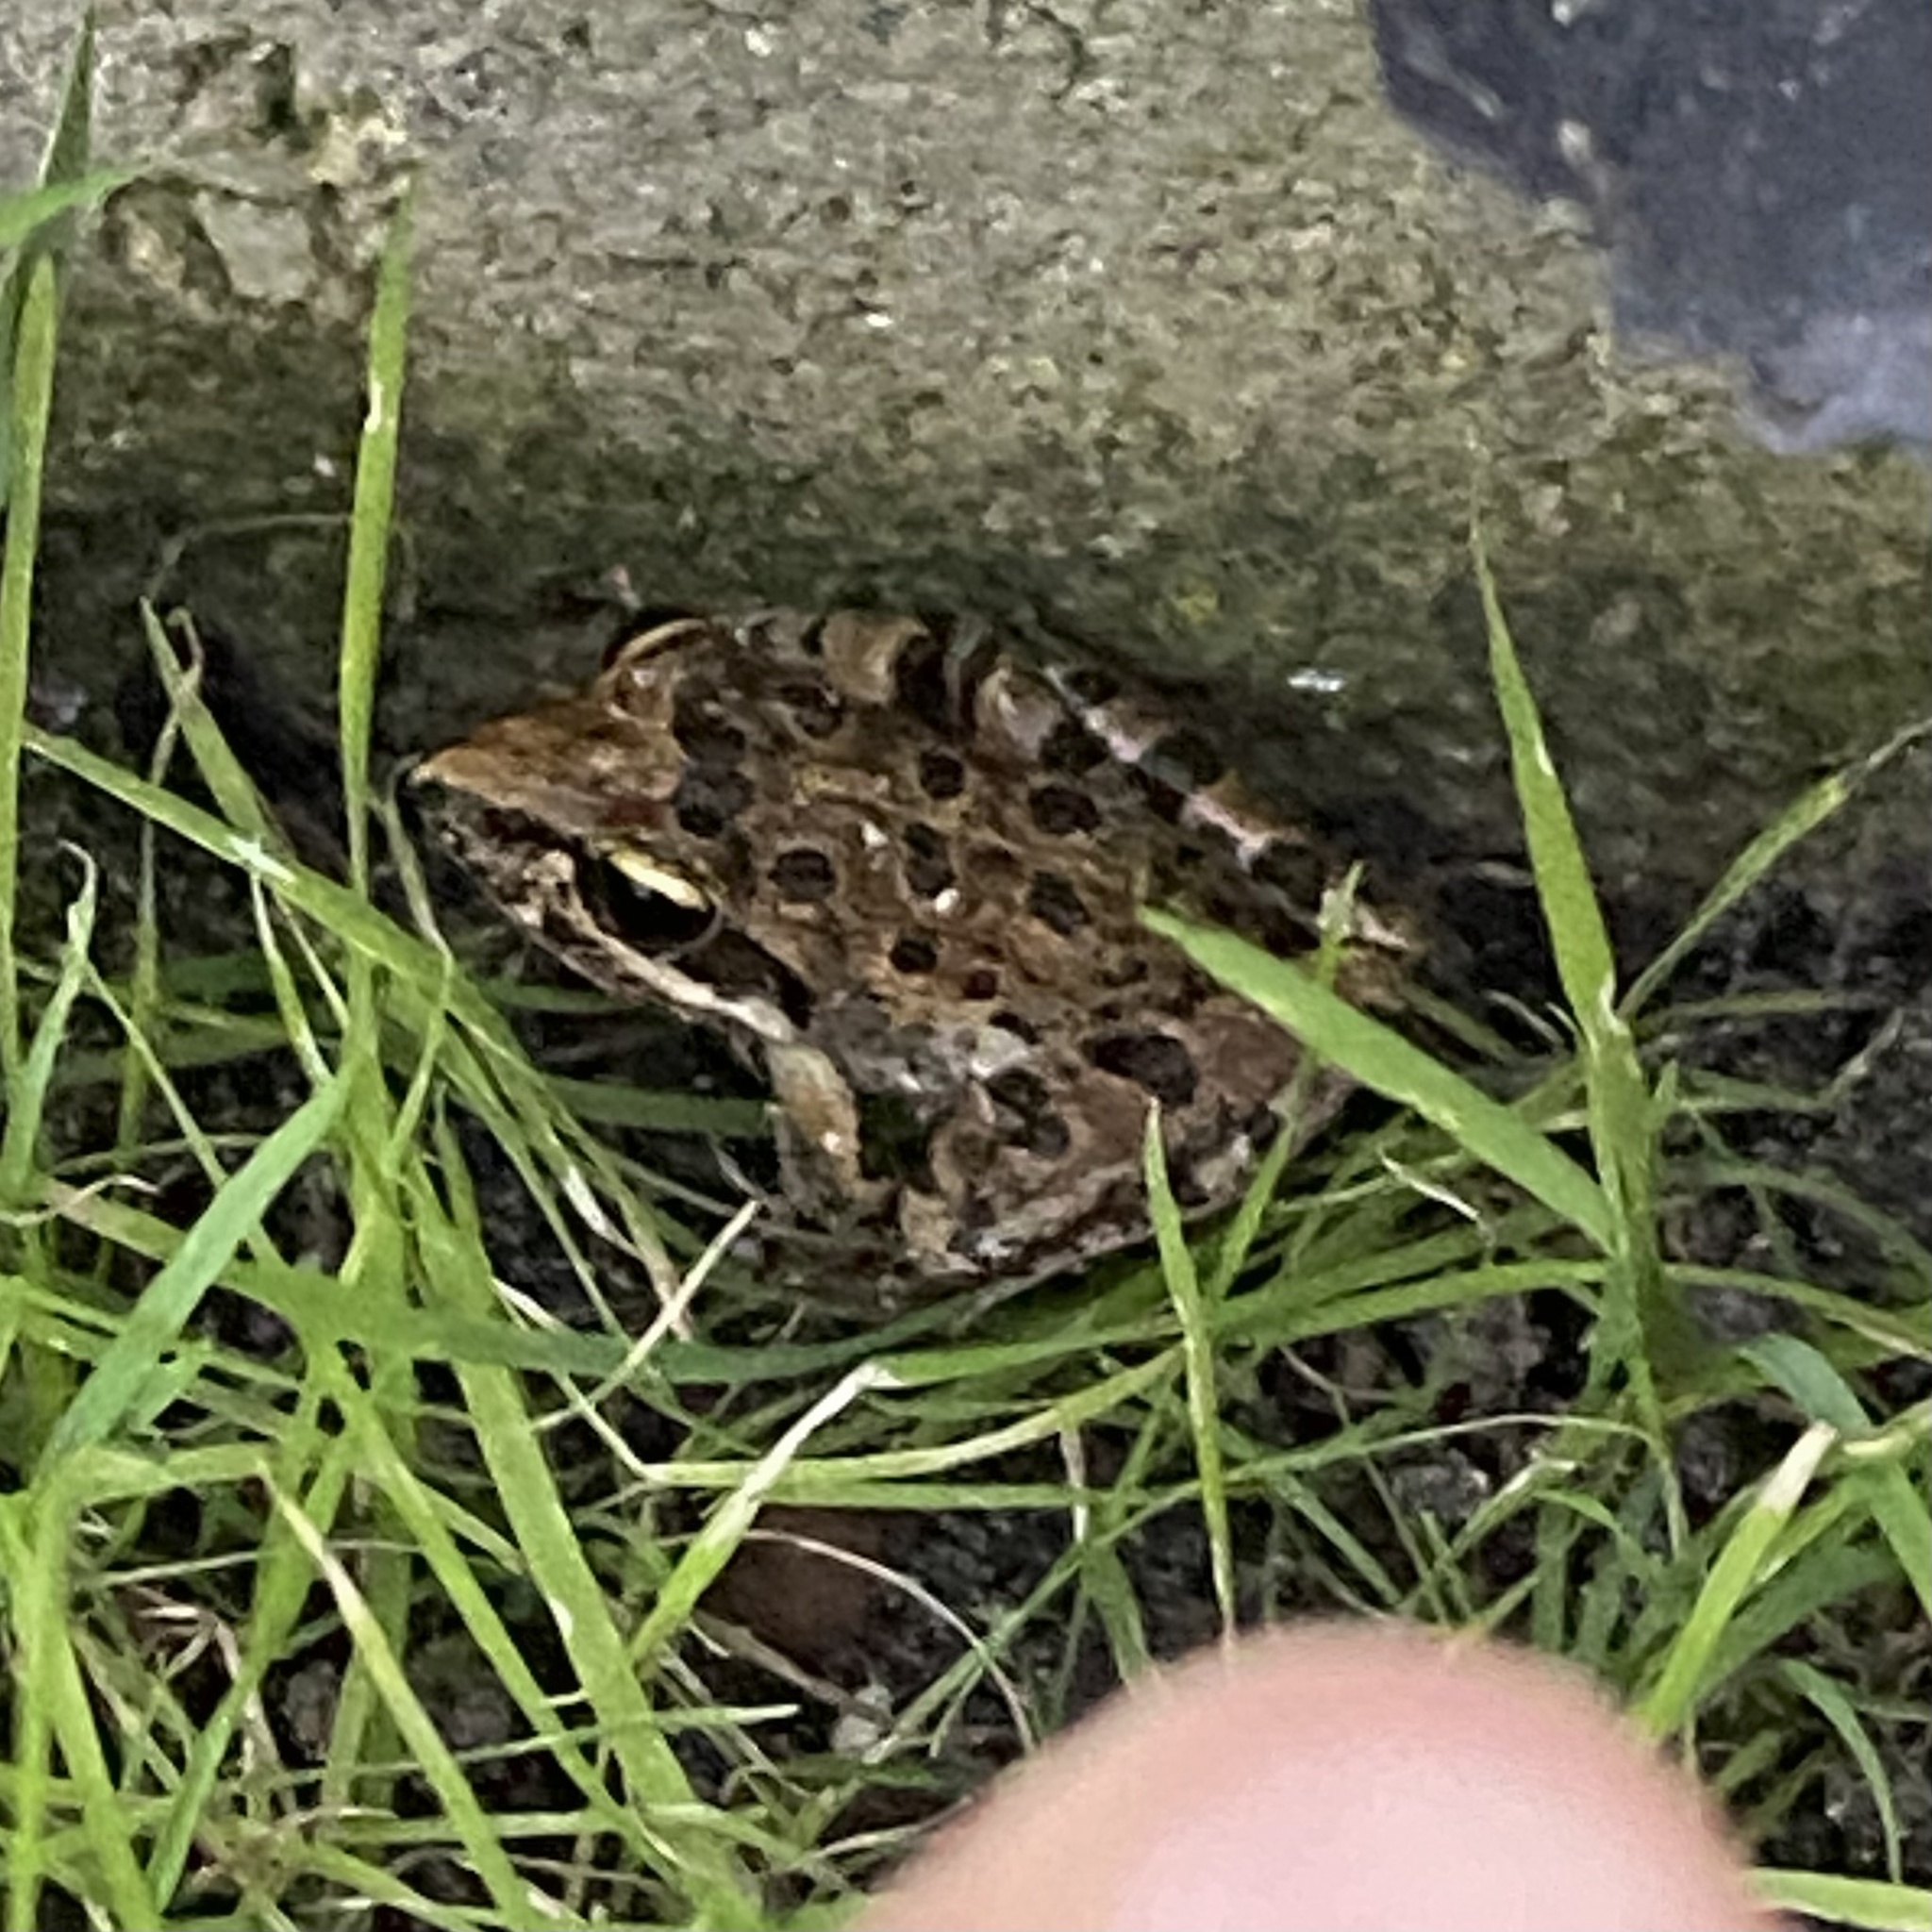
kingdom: Animalia
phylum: Chordata
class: Amphibia
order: Anura
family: Pyxicephalidae
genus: Strongylopus
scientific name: Strongylopus grayii
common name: Gray's stream frog
